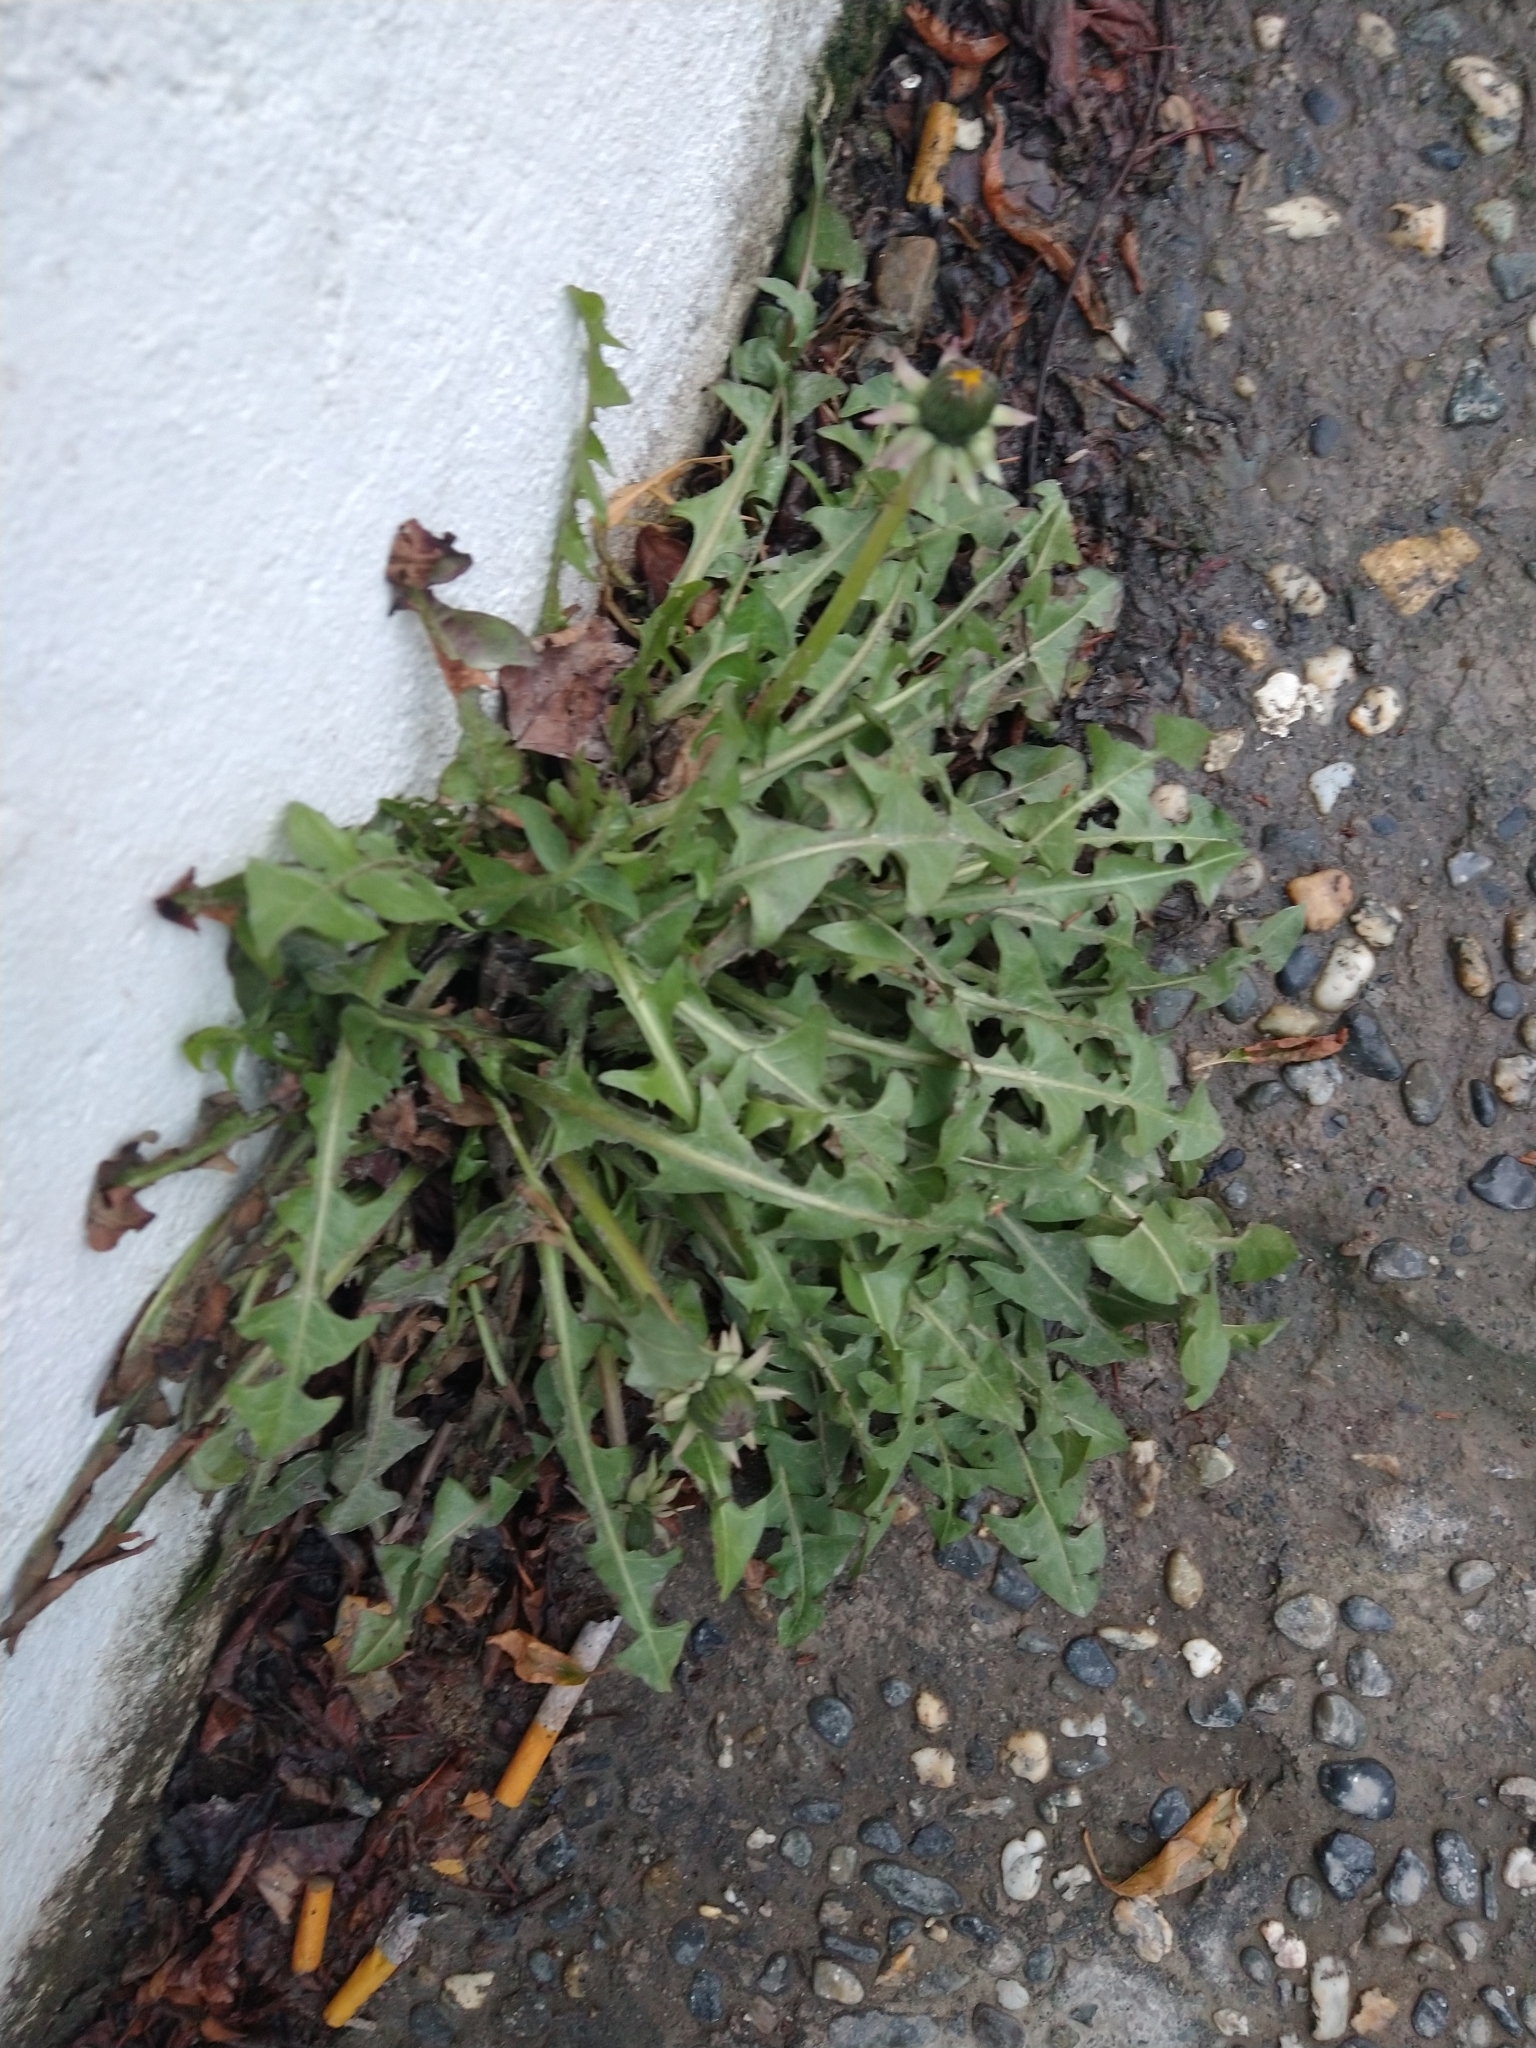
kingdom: Plantae
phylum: Tracheophyta
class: Magnoliopsida
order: Asterales
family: Asteraceae
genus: Taraxacum
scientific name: Taraxacum officinale
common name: Common dandelion
